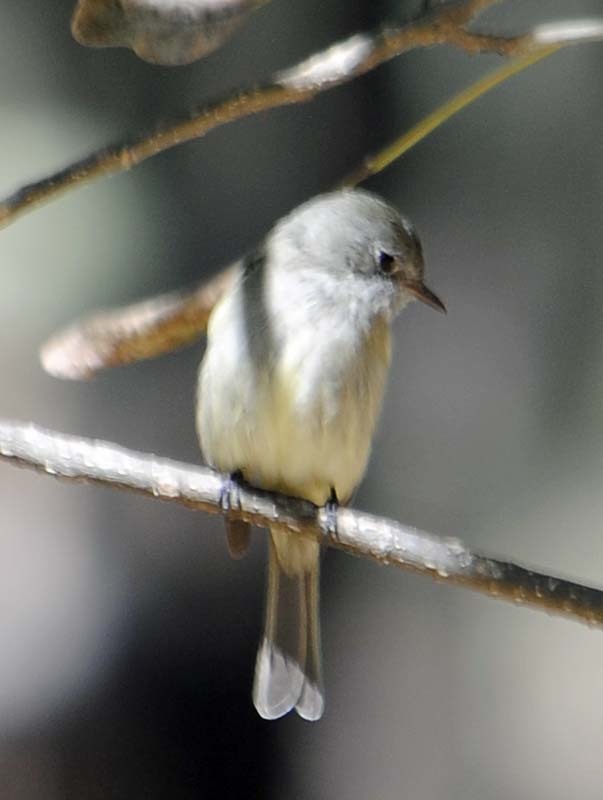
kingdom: Animalia
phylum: Chordata
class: Aves
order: Passeriformes
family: Tyrannidae
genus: Empidonax
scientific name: Empidonax wrightii
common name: Gray flycatcher
